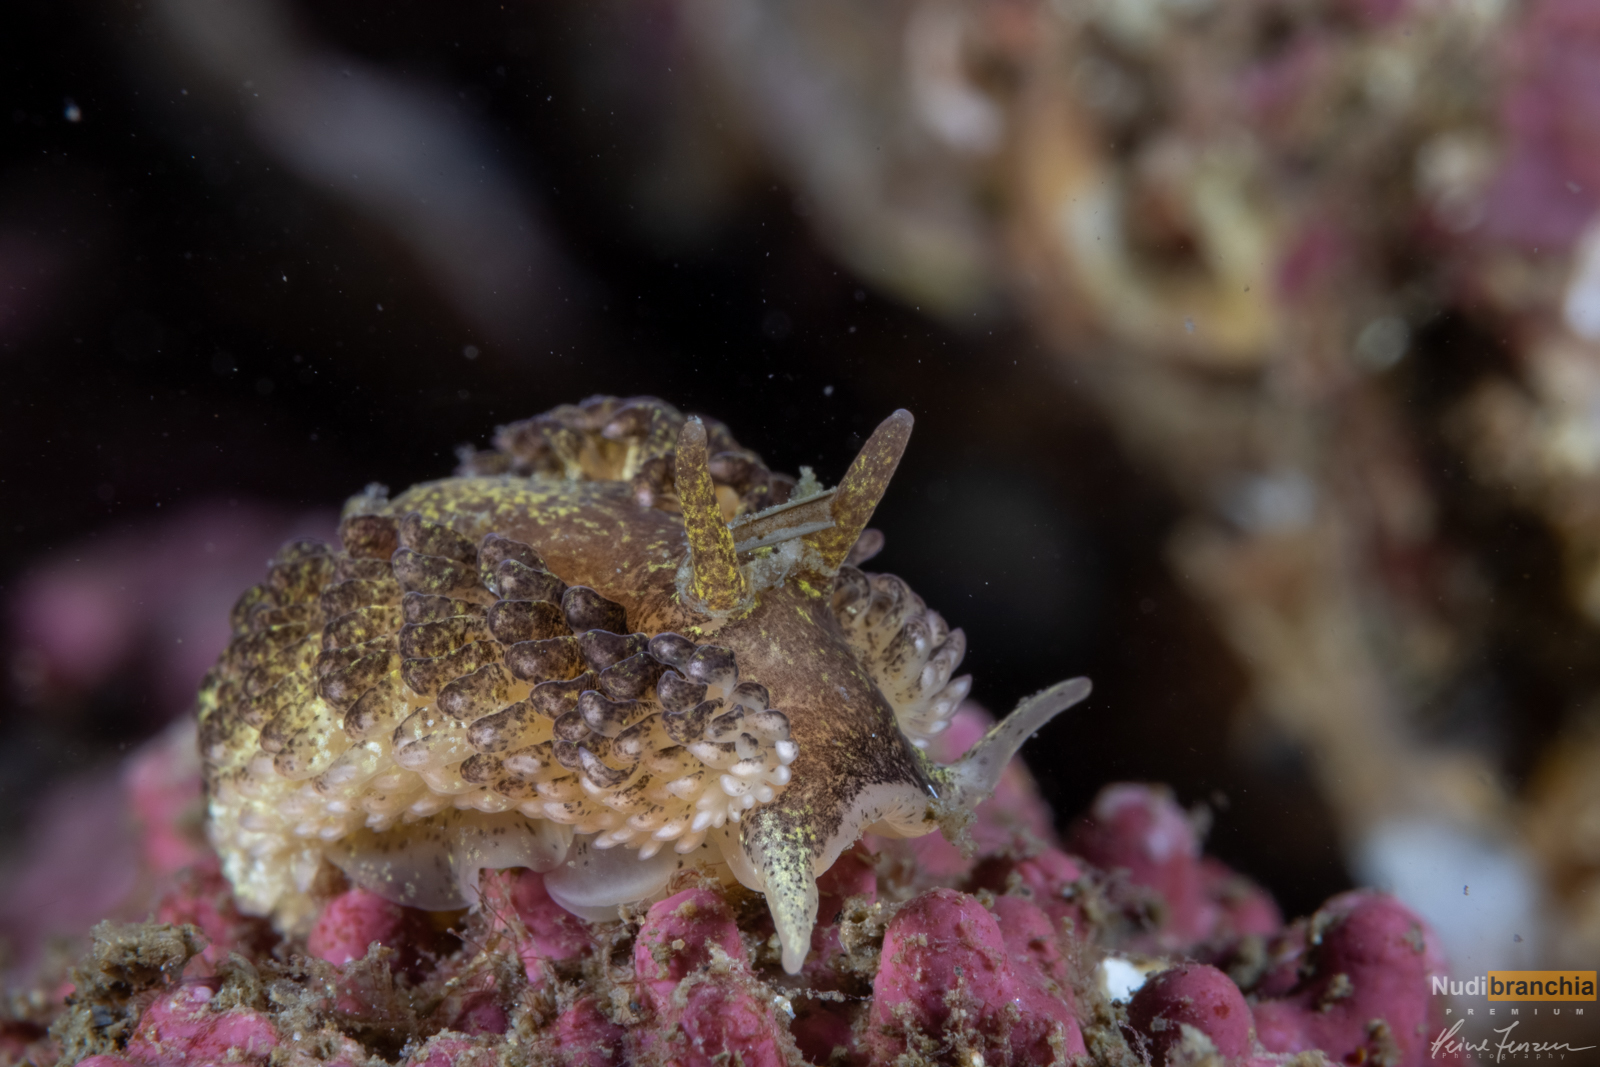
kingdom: Animalia
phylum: Mollusca
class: Gastropoda
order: Nudibranchia
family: Aeolidiidae
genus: Aeolidia
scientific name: Aeolidia papillosa
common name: Common grey sea slug
